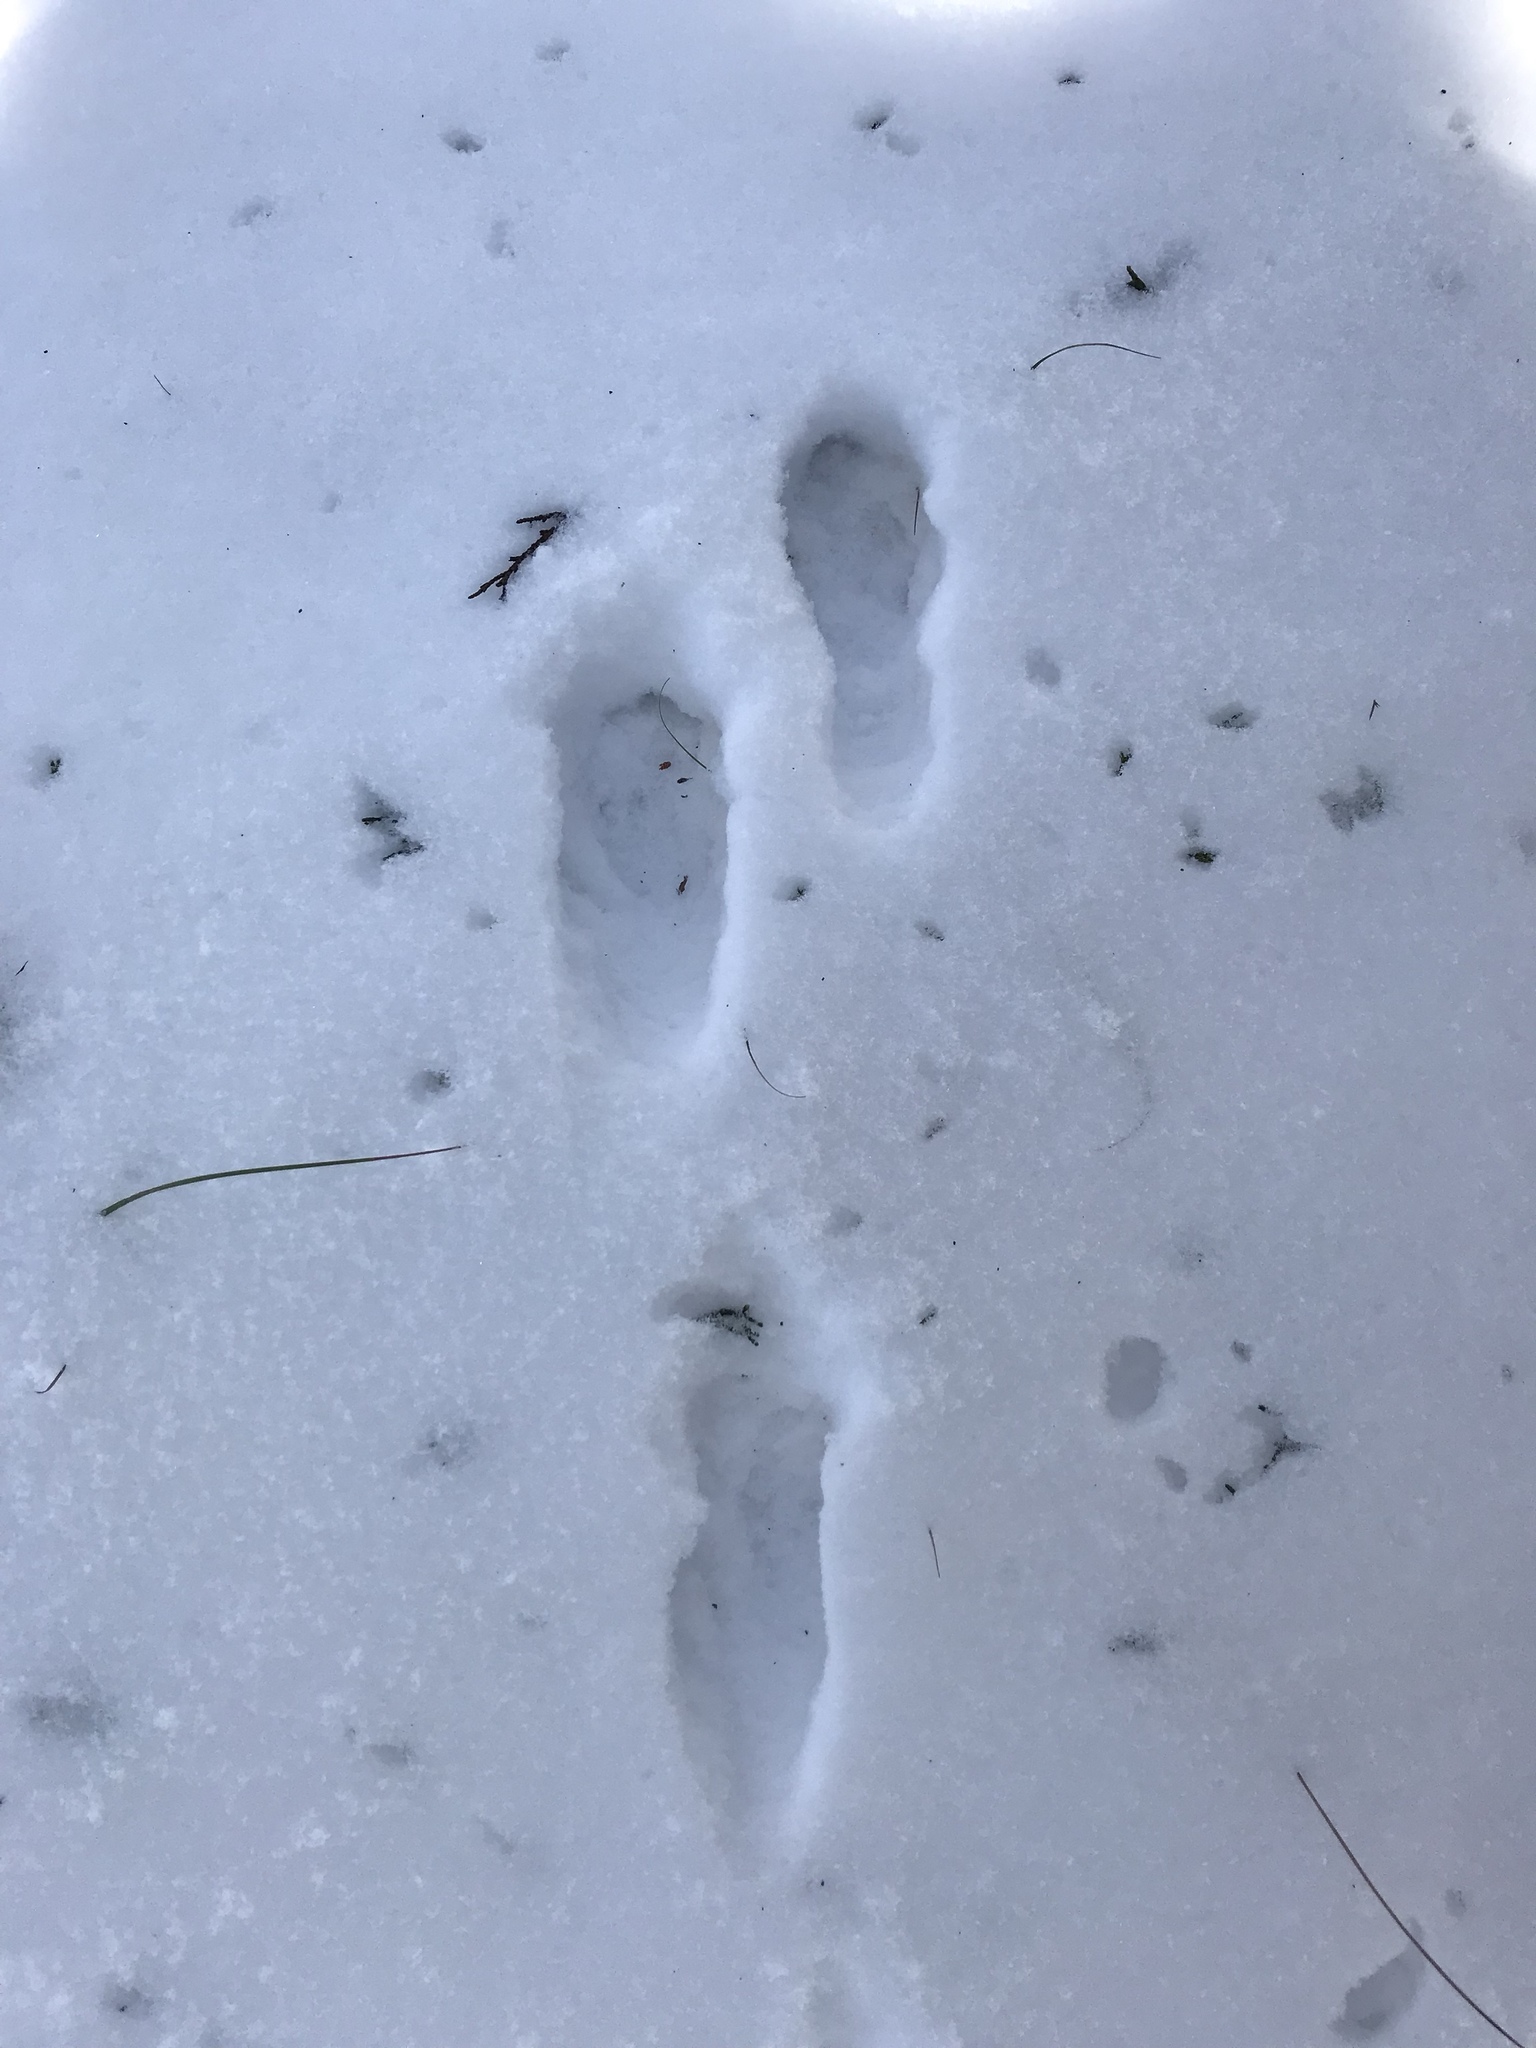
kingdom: Animalia
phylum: Chordata
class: Mammalia
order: Lagomorpha
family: Leporidae
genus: Lepus
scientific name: Lepus californicus
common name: Black-tailed jackrabbit
